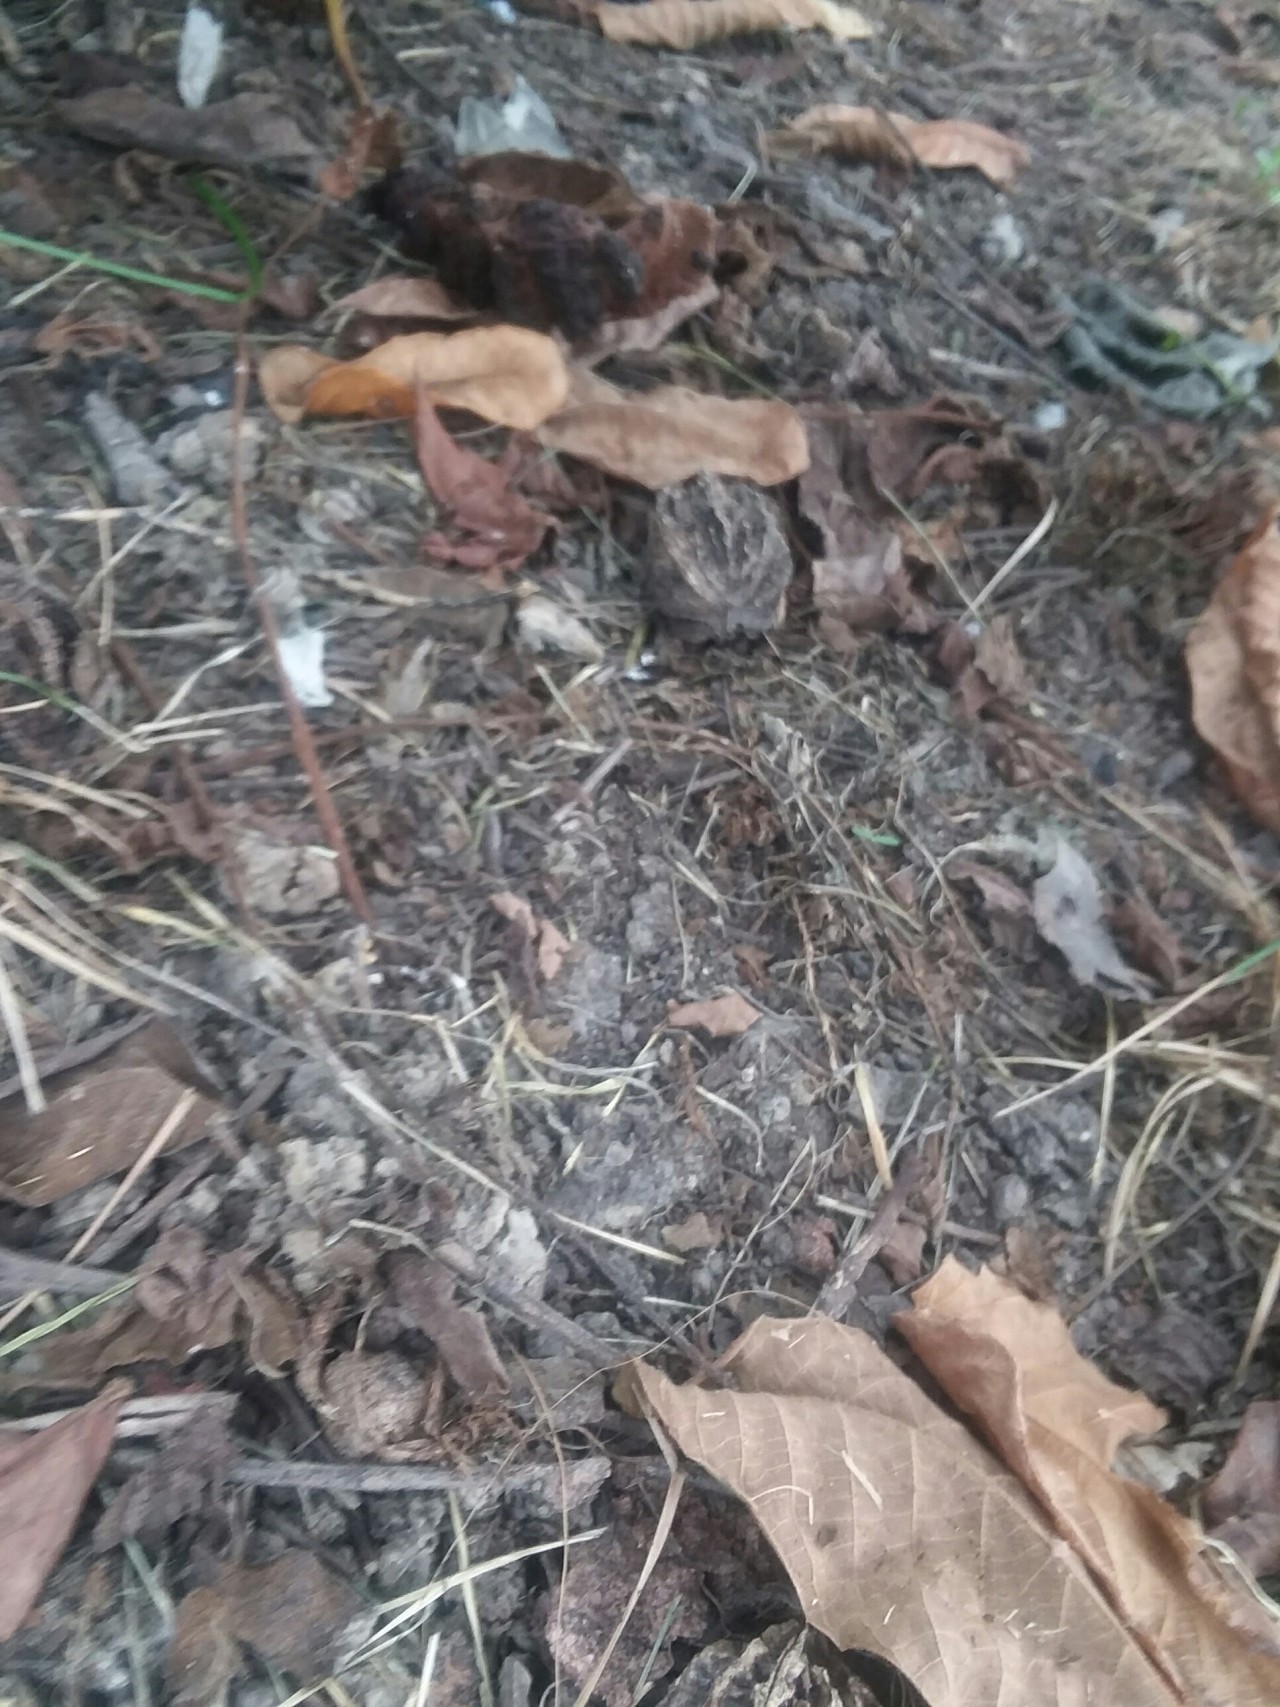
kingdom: Plantae
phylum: Tracheophyta
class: Magnoliopsida
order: Fagales
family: Juglandaceae
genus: Juglans
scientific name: Juglans cinerea
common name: Butternut
